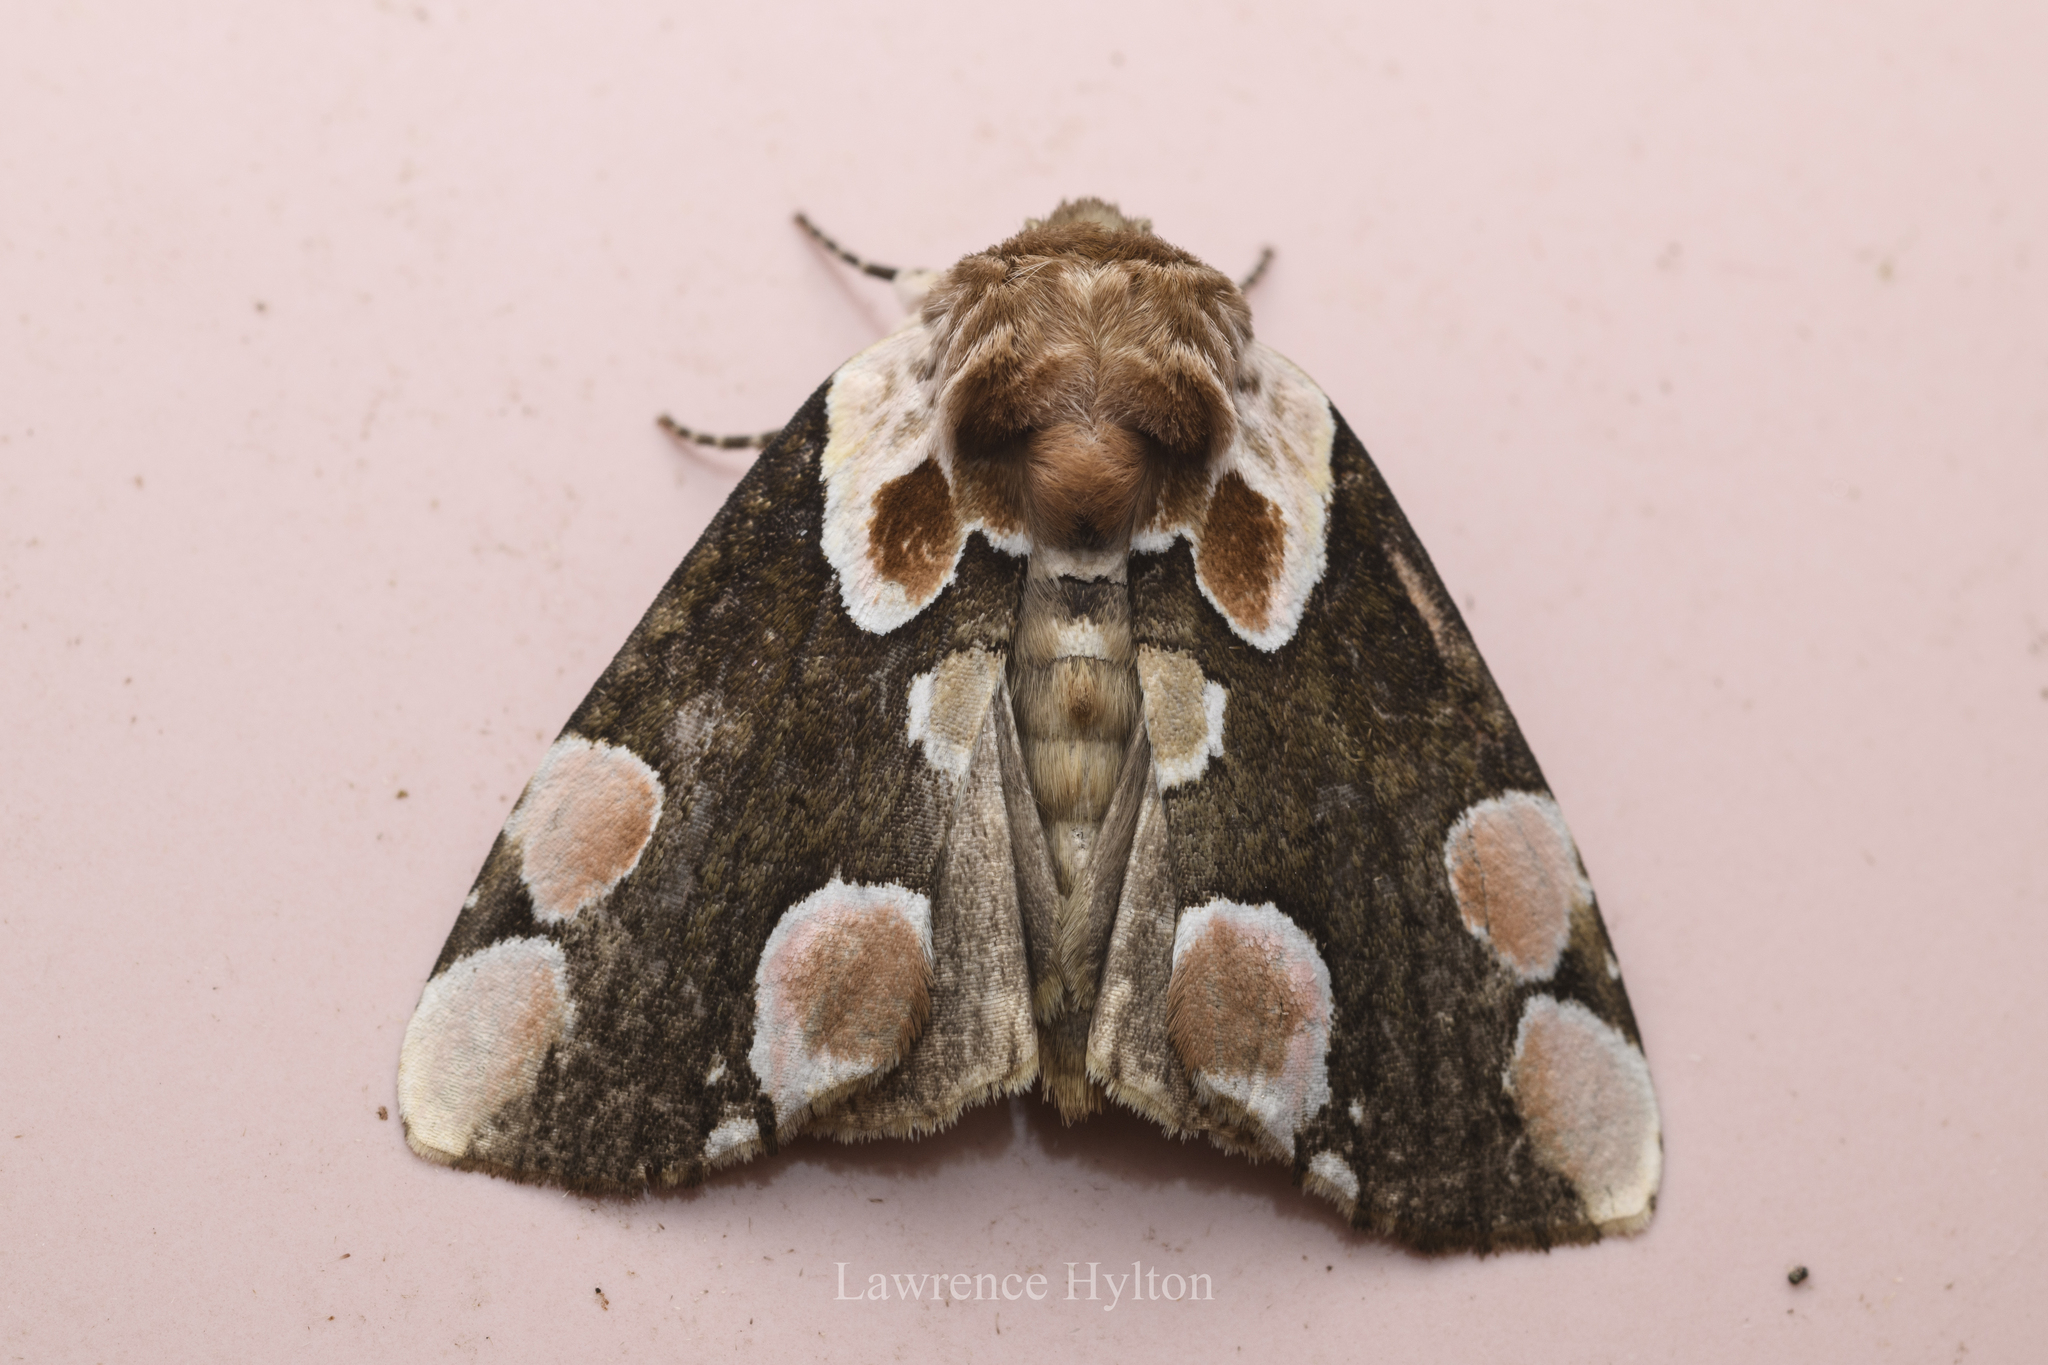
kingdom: Animalia
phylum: Arthropoda
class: Insecta
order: Lepidoptera
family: Drepanidae
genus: Thyatira
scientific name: Thyatira batis
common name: Peach blossom
